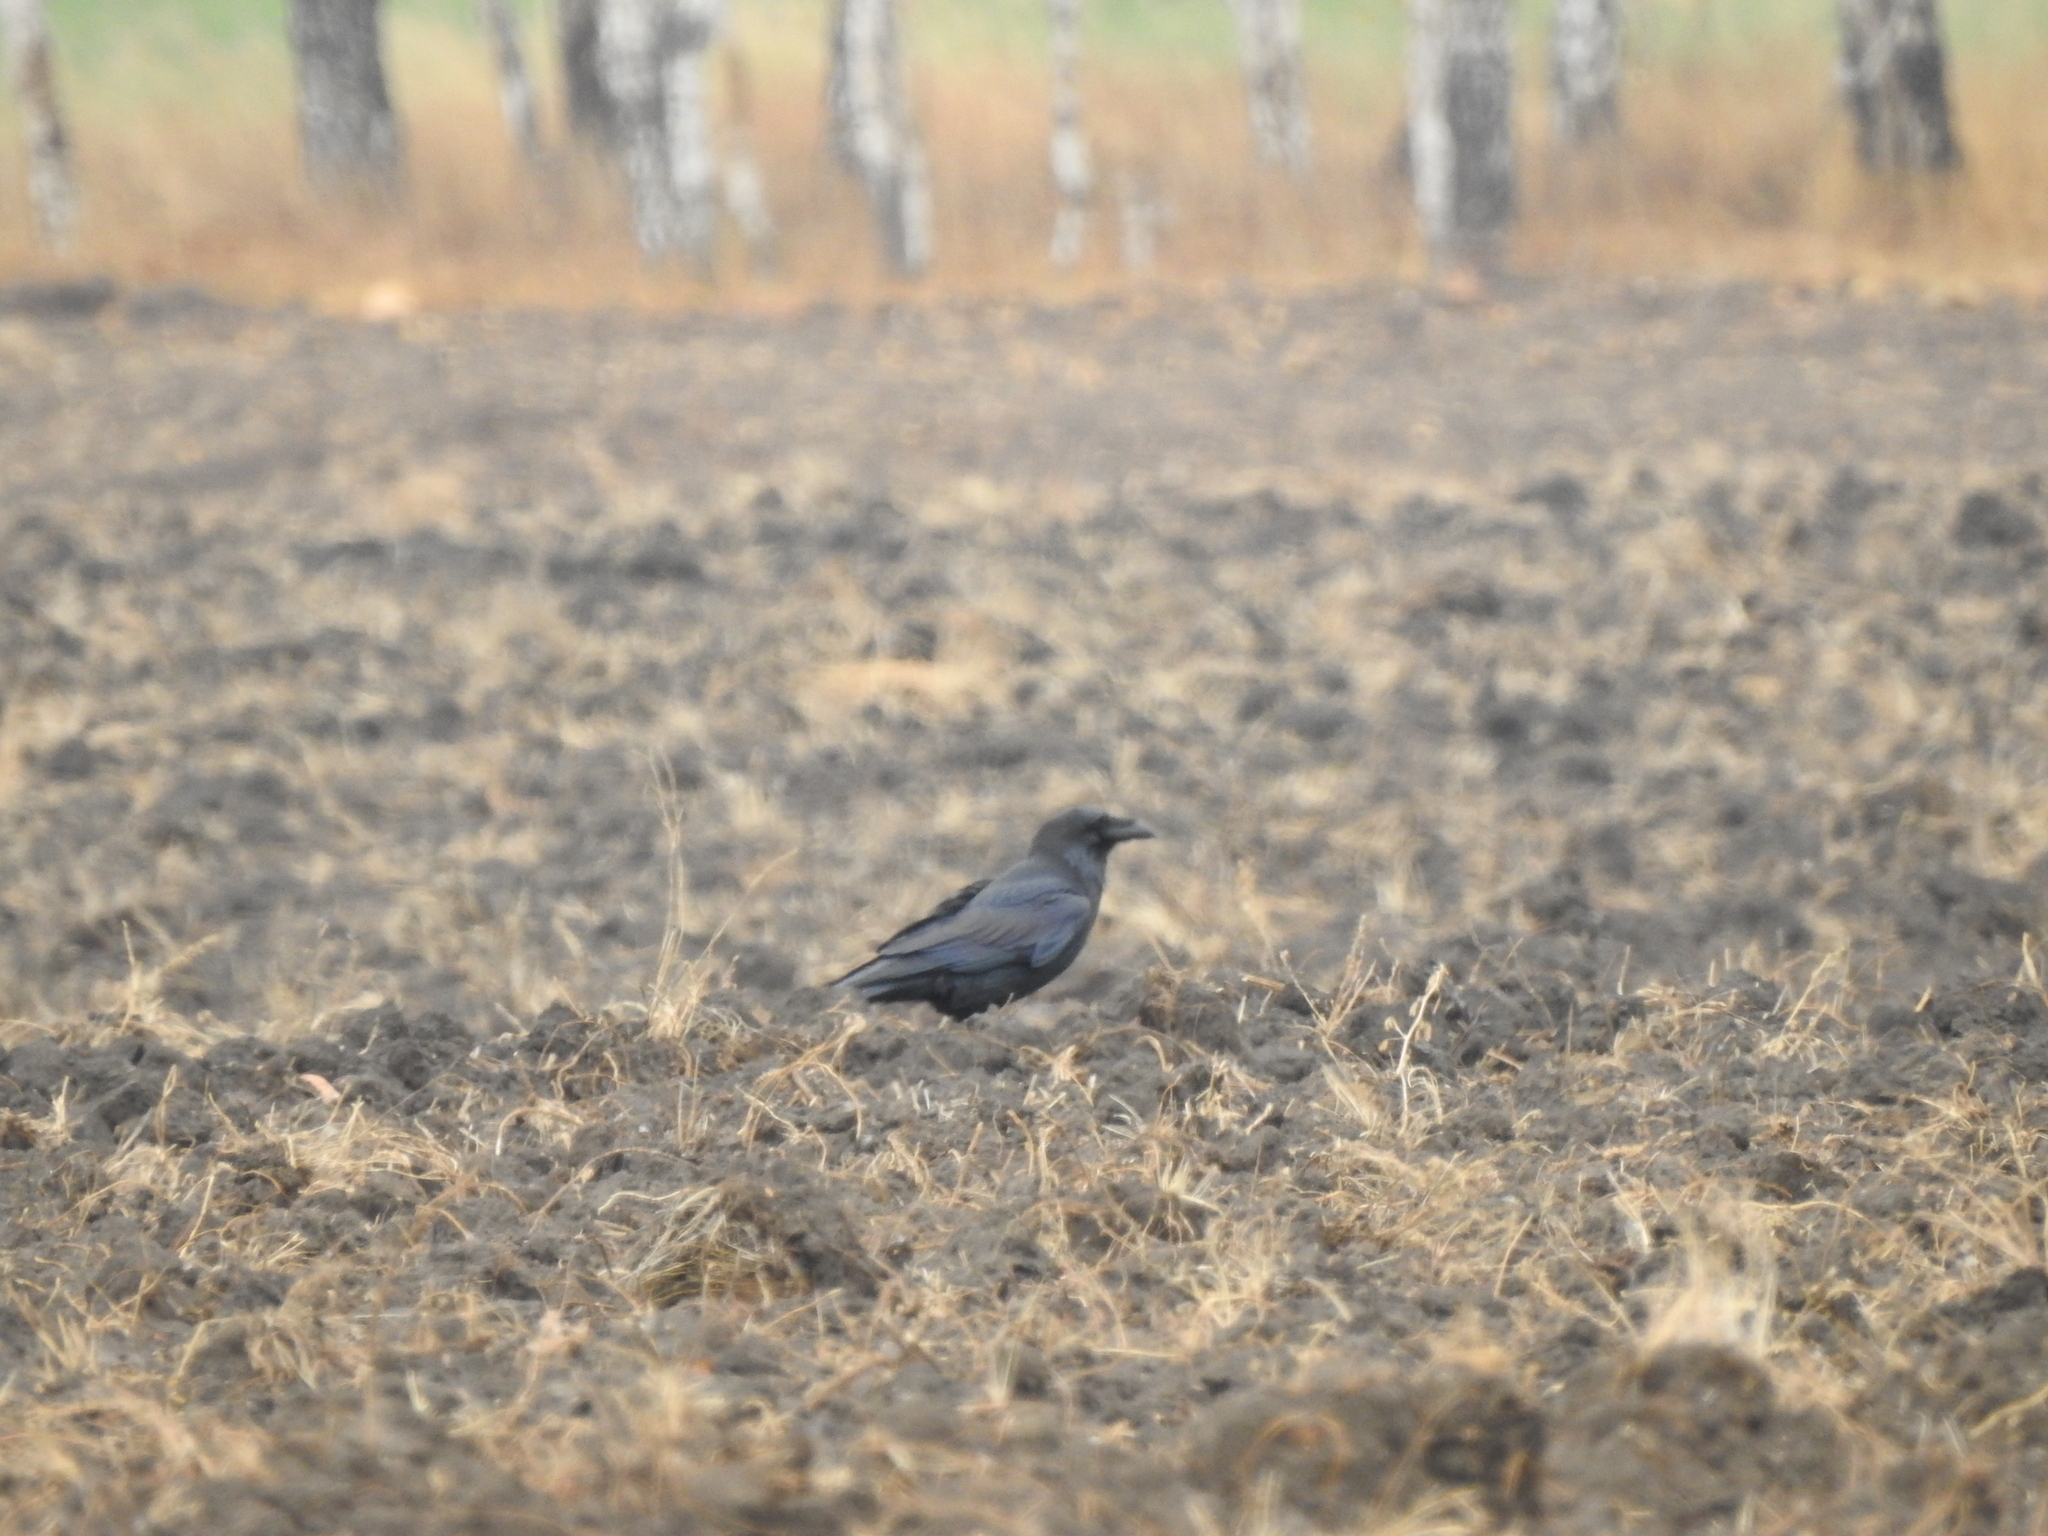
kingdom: Animalia
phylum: Chordata
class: Aves
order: Passeriformes
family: Corvidae
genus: Corvus
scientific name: Corvus corax
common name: Common raven
